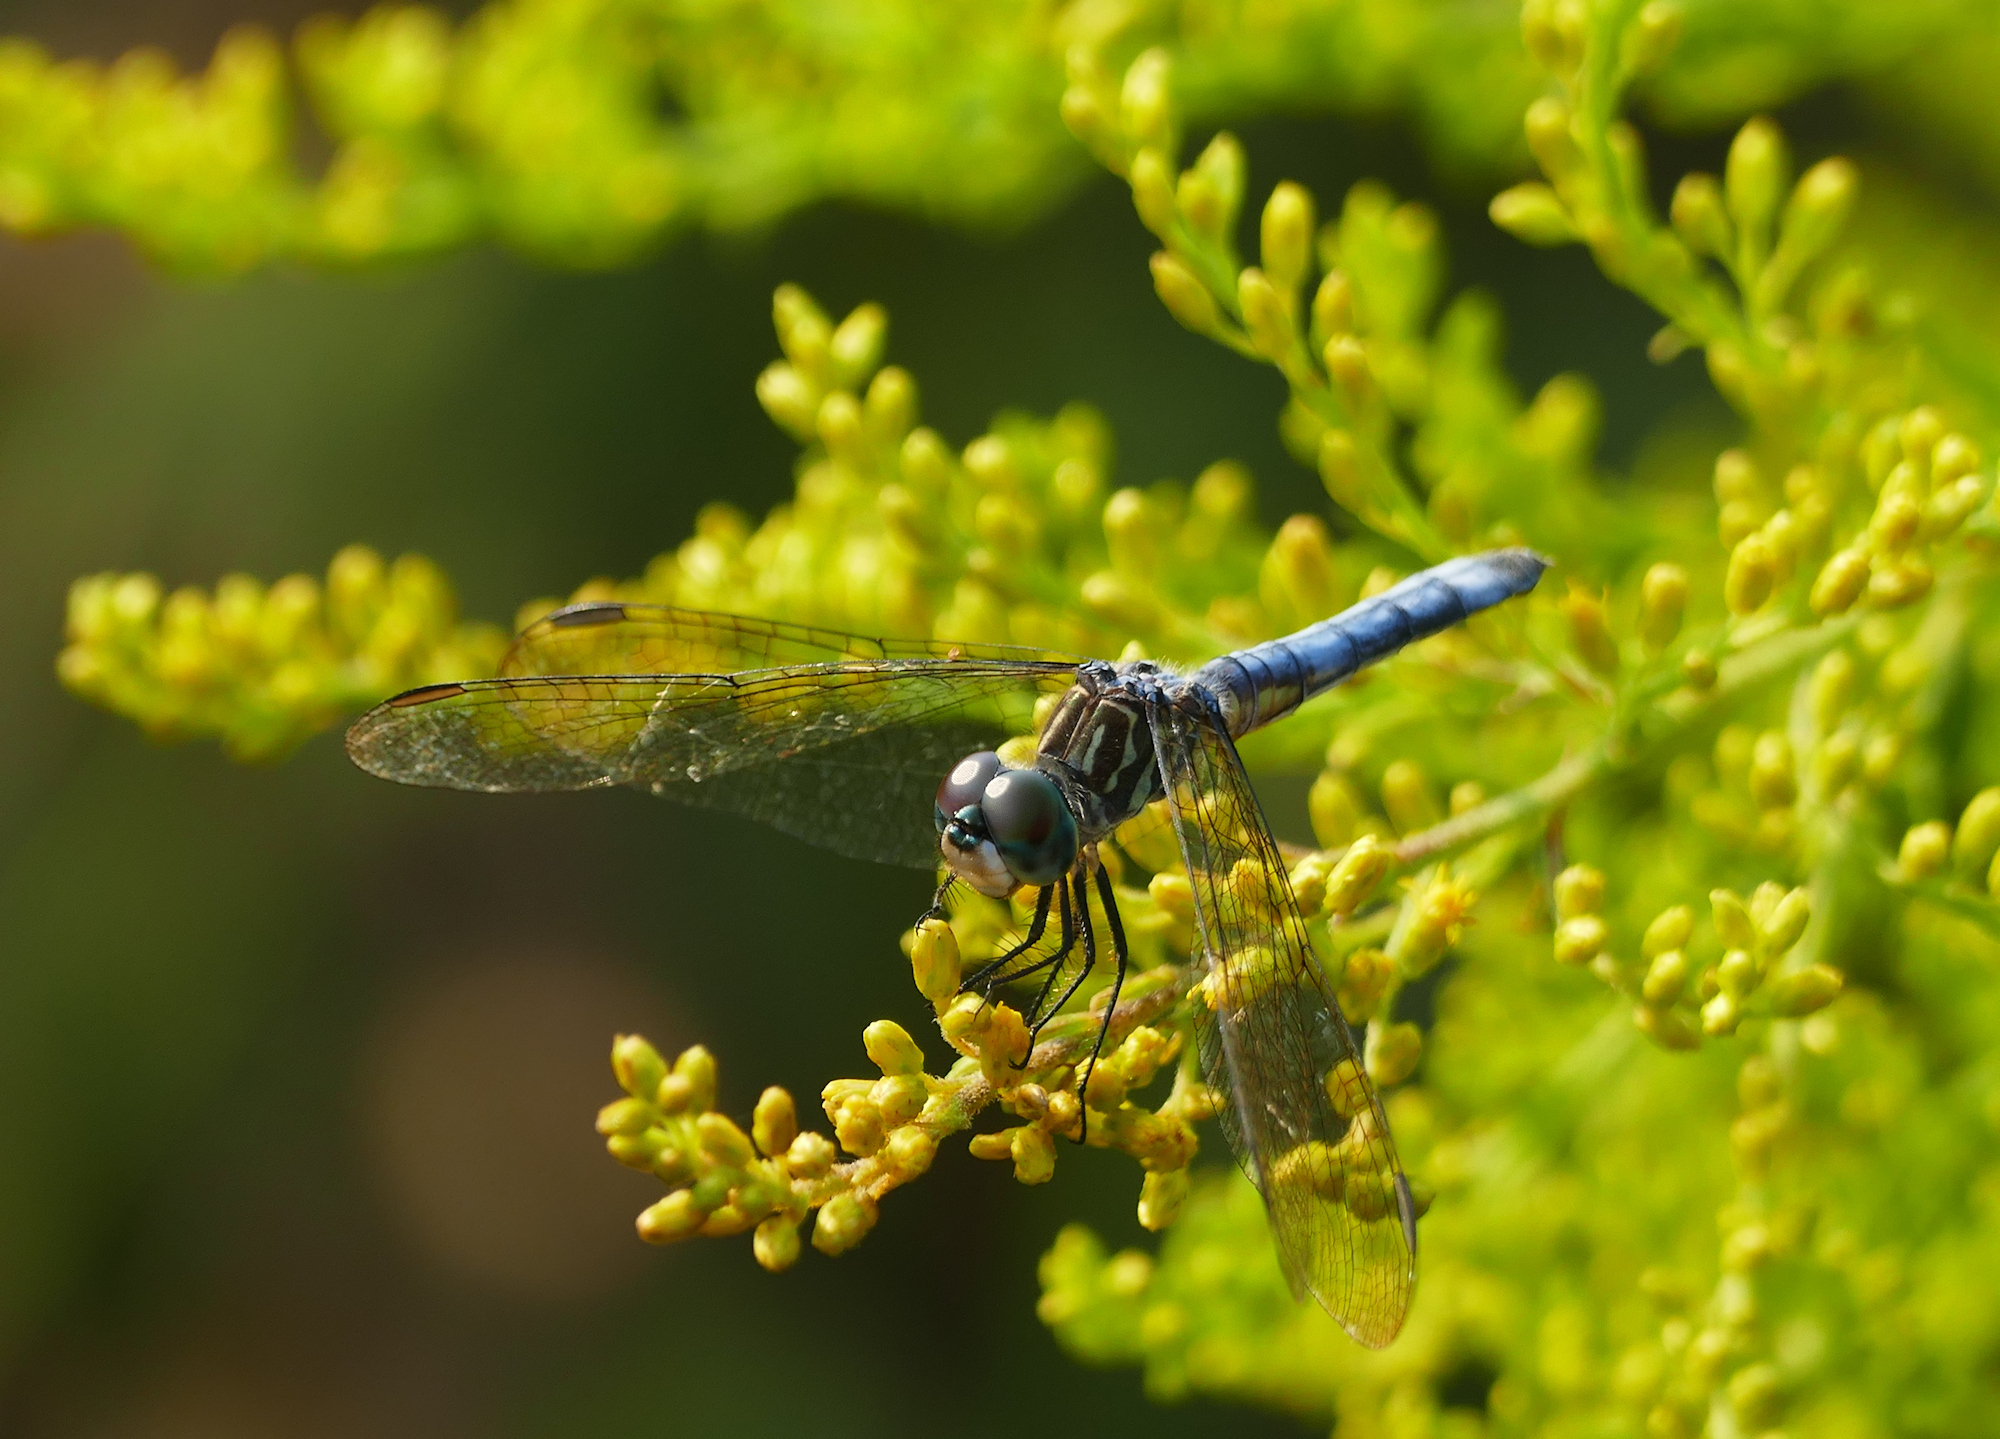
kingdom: Animalia
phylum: Arthropoda
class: Insecta
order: Odonata
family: Libellulidae
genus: Pachydiplax
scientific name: Pachydiplax longipennis
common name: Blue dasher
